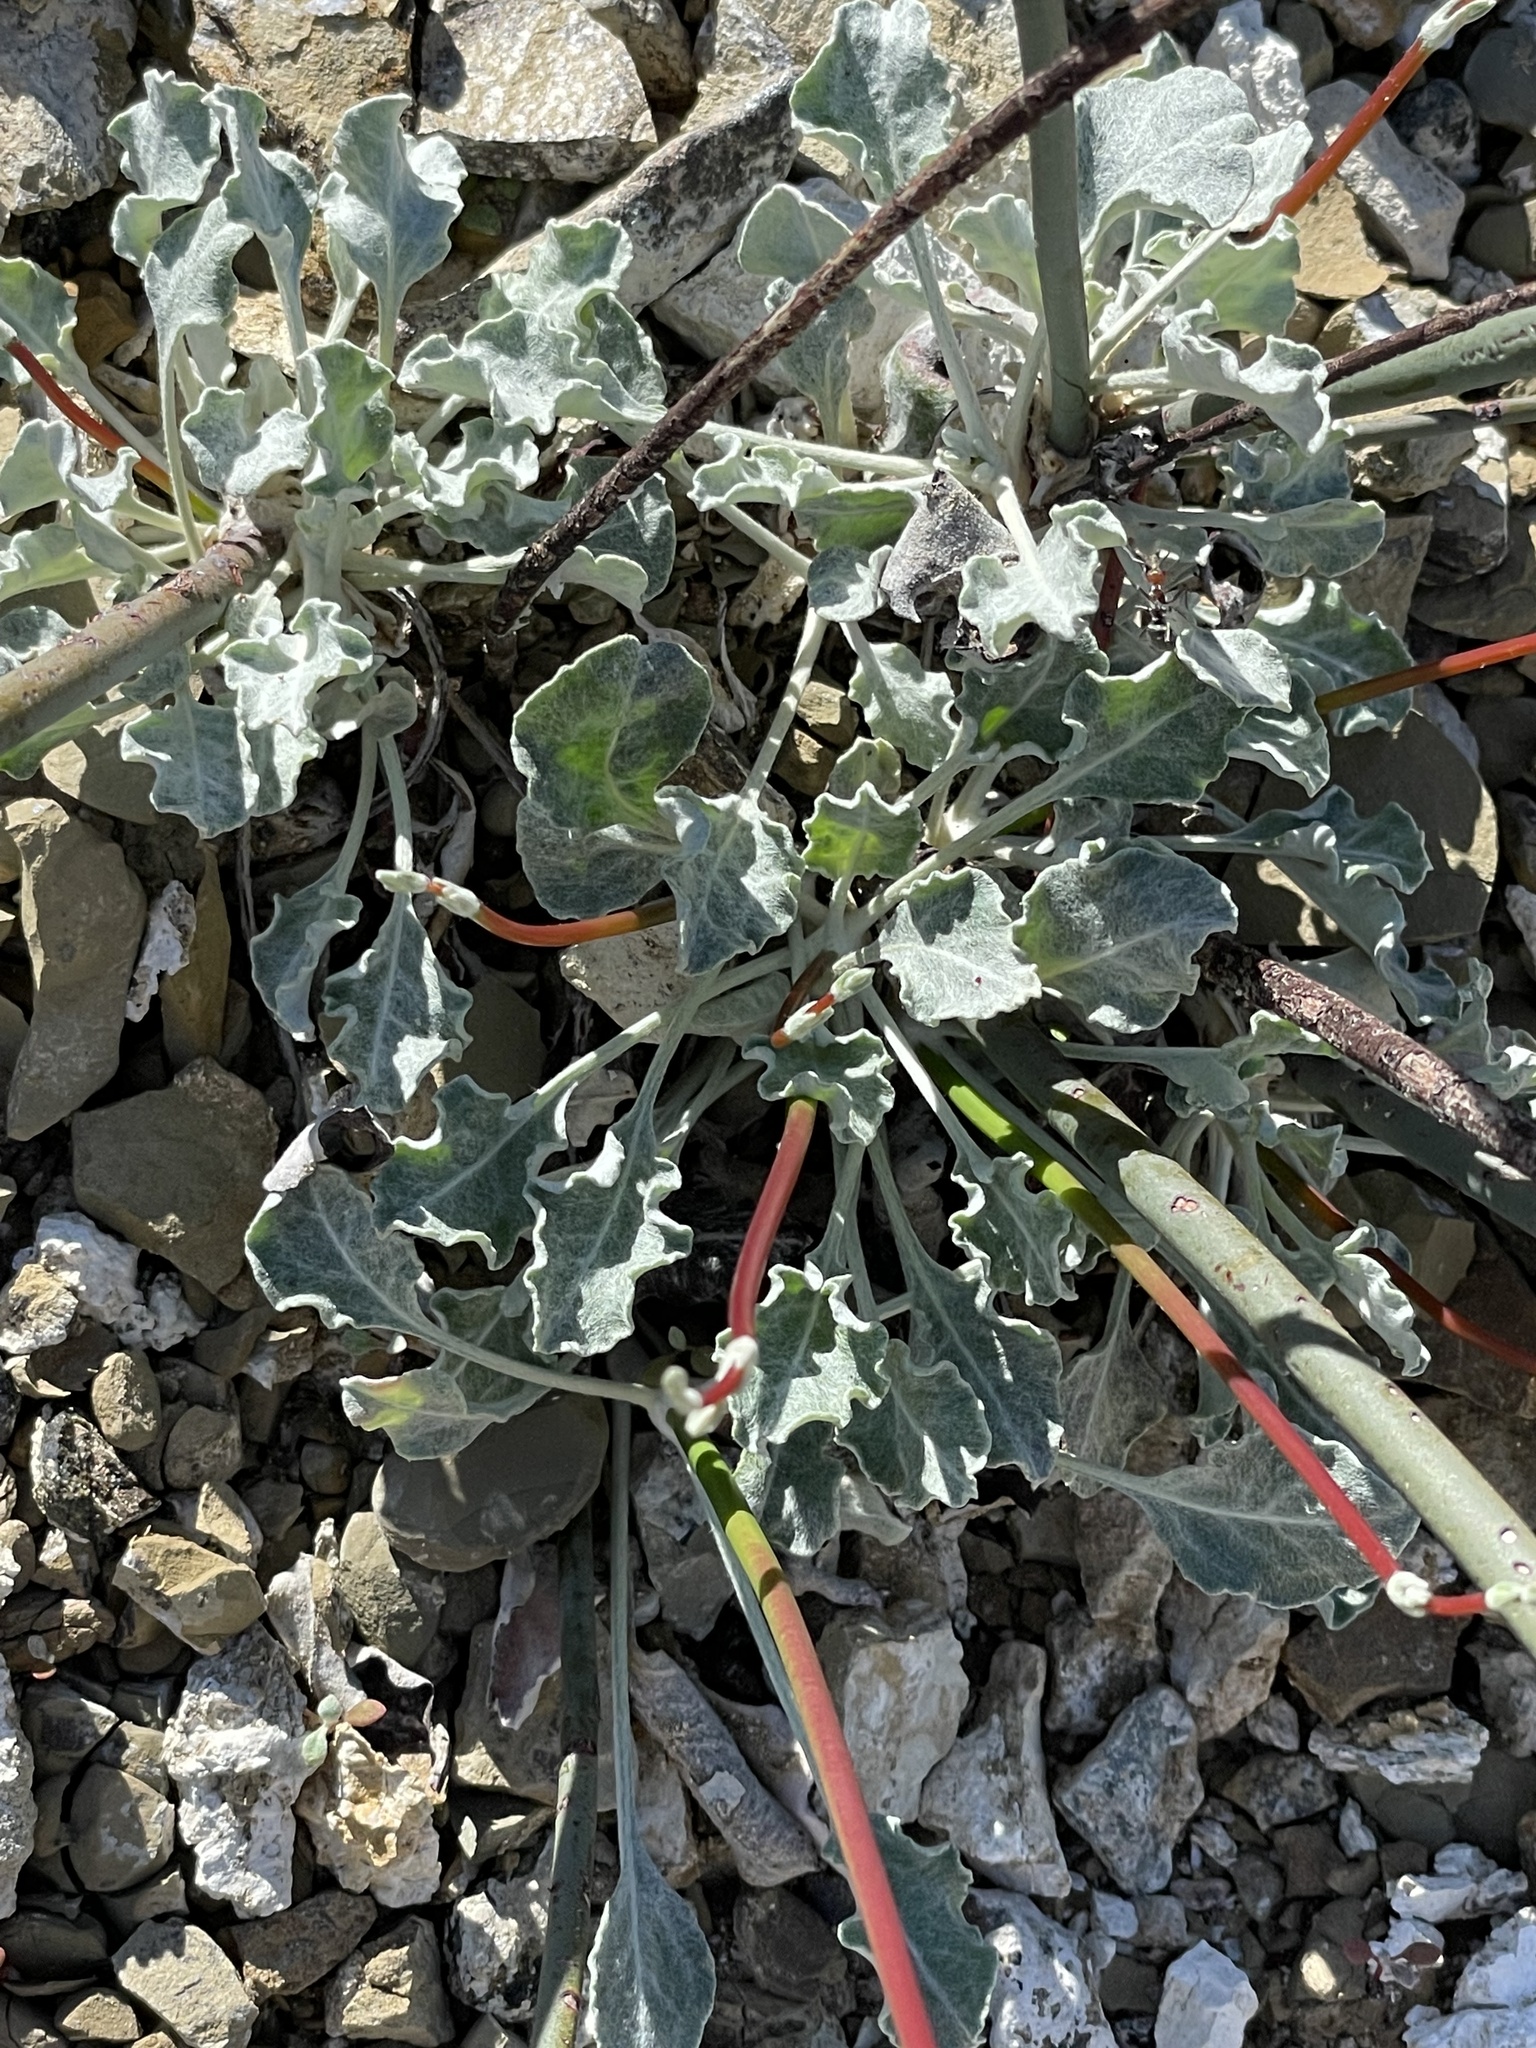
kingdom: Plantae
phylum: Tracheophyta
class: Magnoliopsida
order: Caryophyllales
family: Polygonaceae
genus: Eriogonum
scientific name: Eriogonum elongatum
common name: Long-stem wild buckwheat
